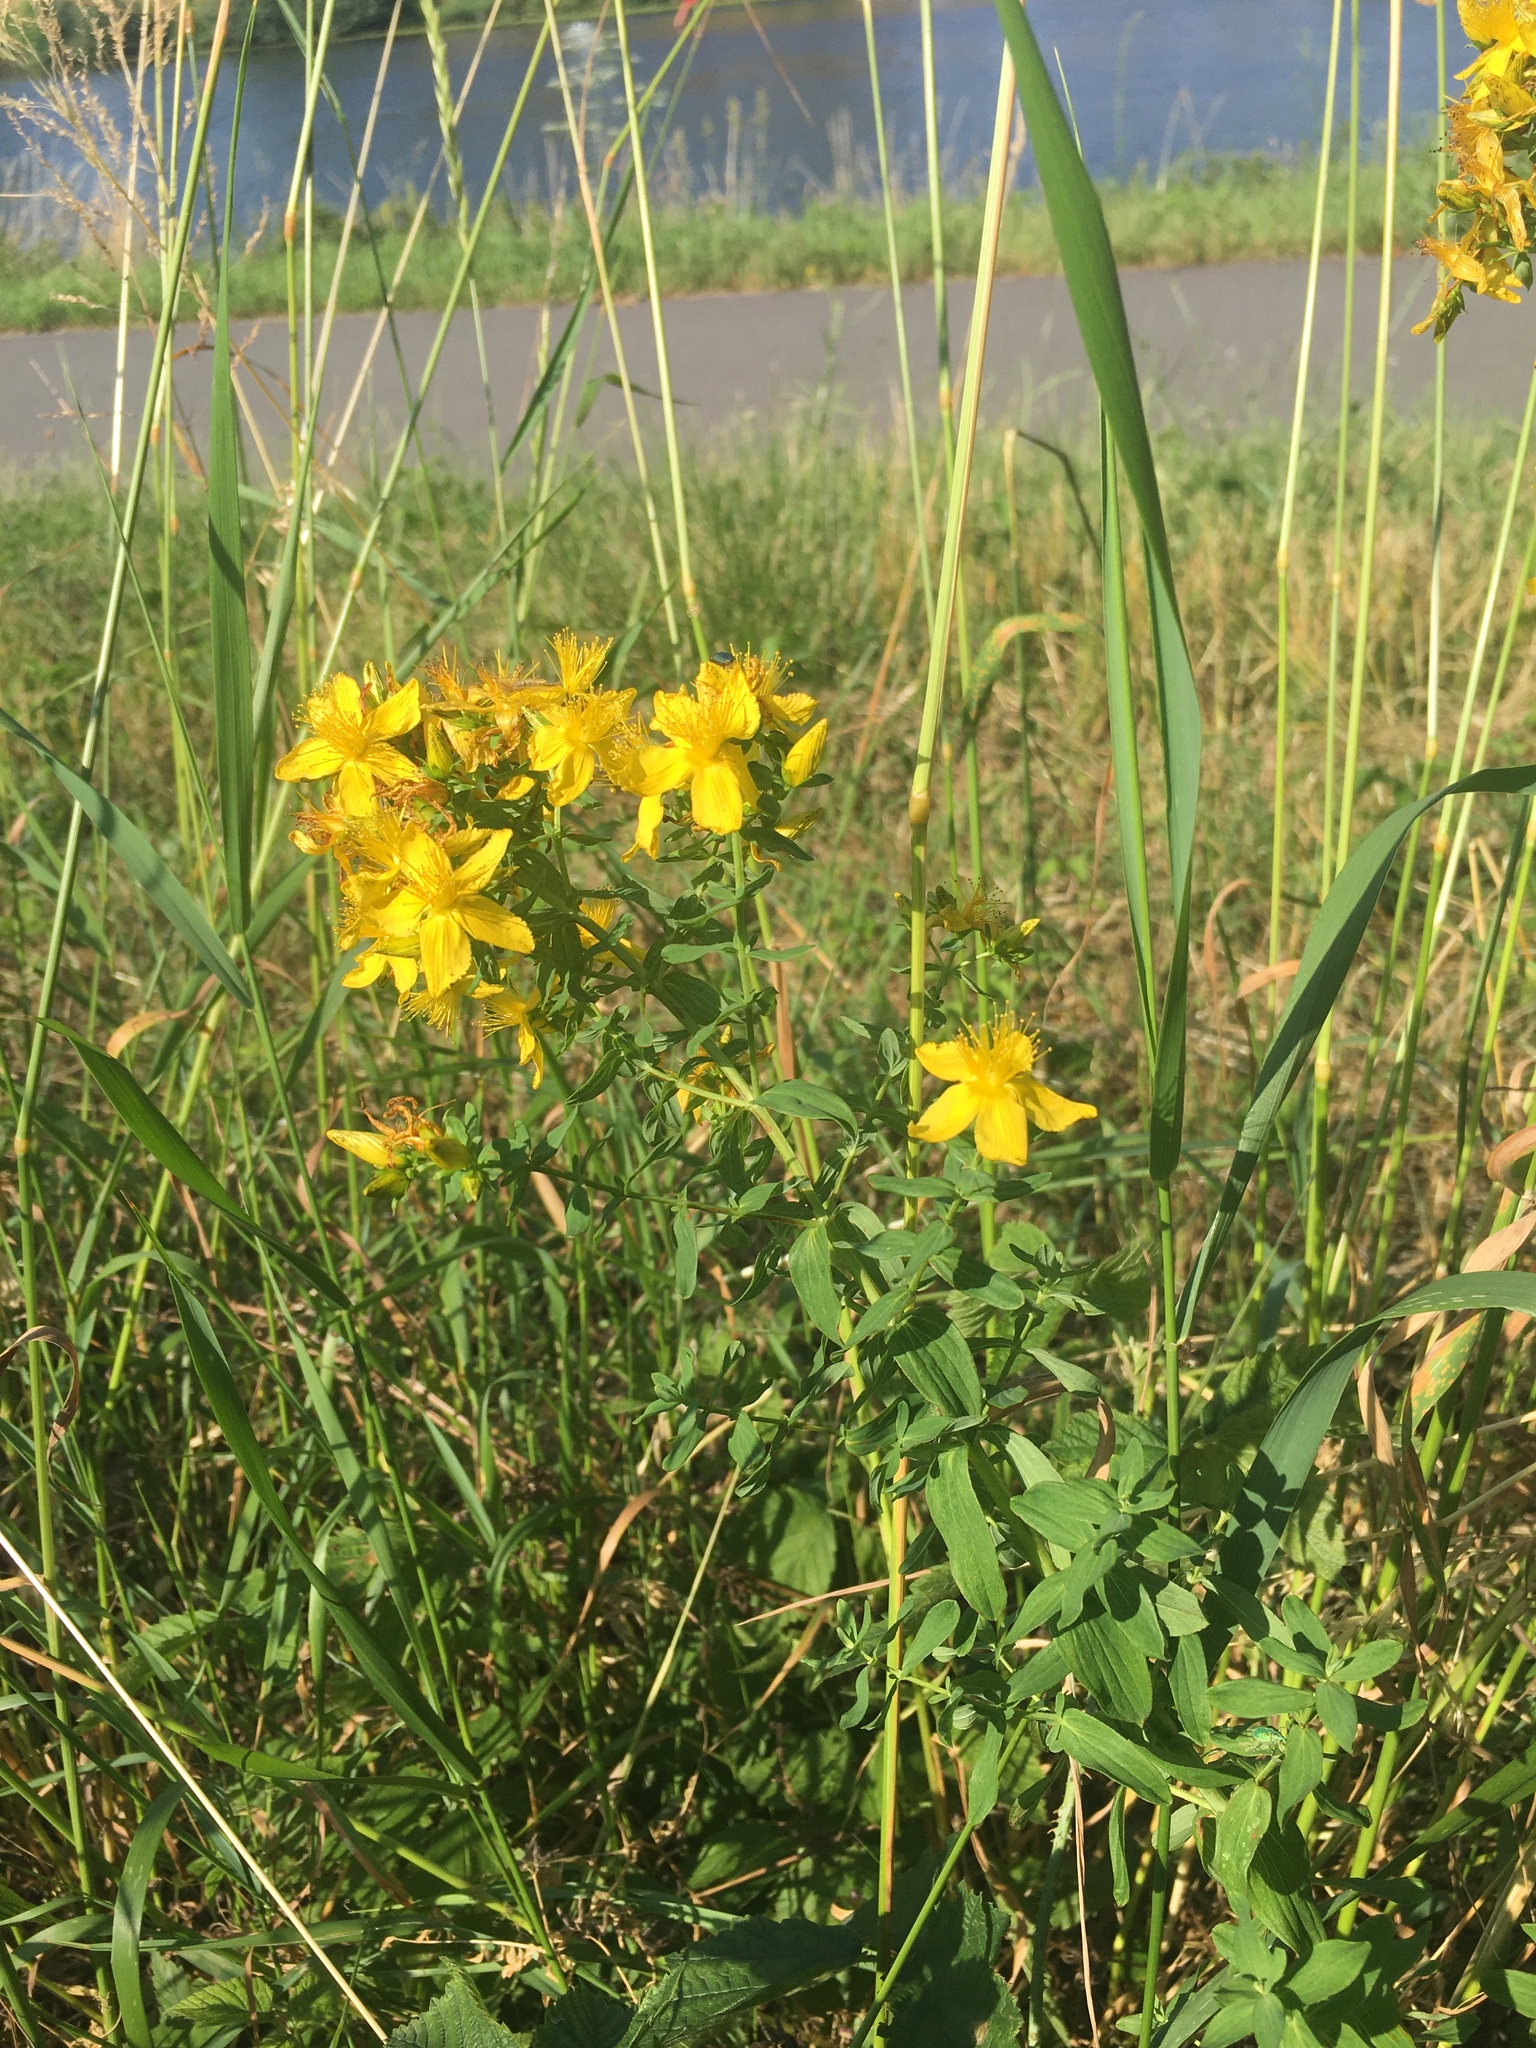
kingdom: Plantae
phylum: Tracheophyta
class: Magnoliopsida
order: Malpighiales
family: Hypericaceae
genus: Hypericum
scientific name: Hypericum perforatum
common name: Common st. johnswort
